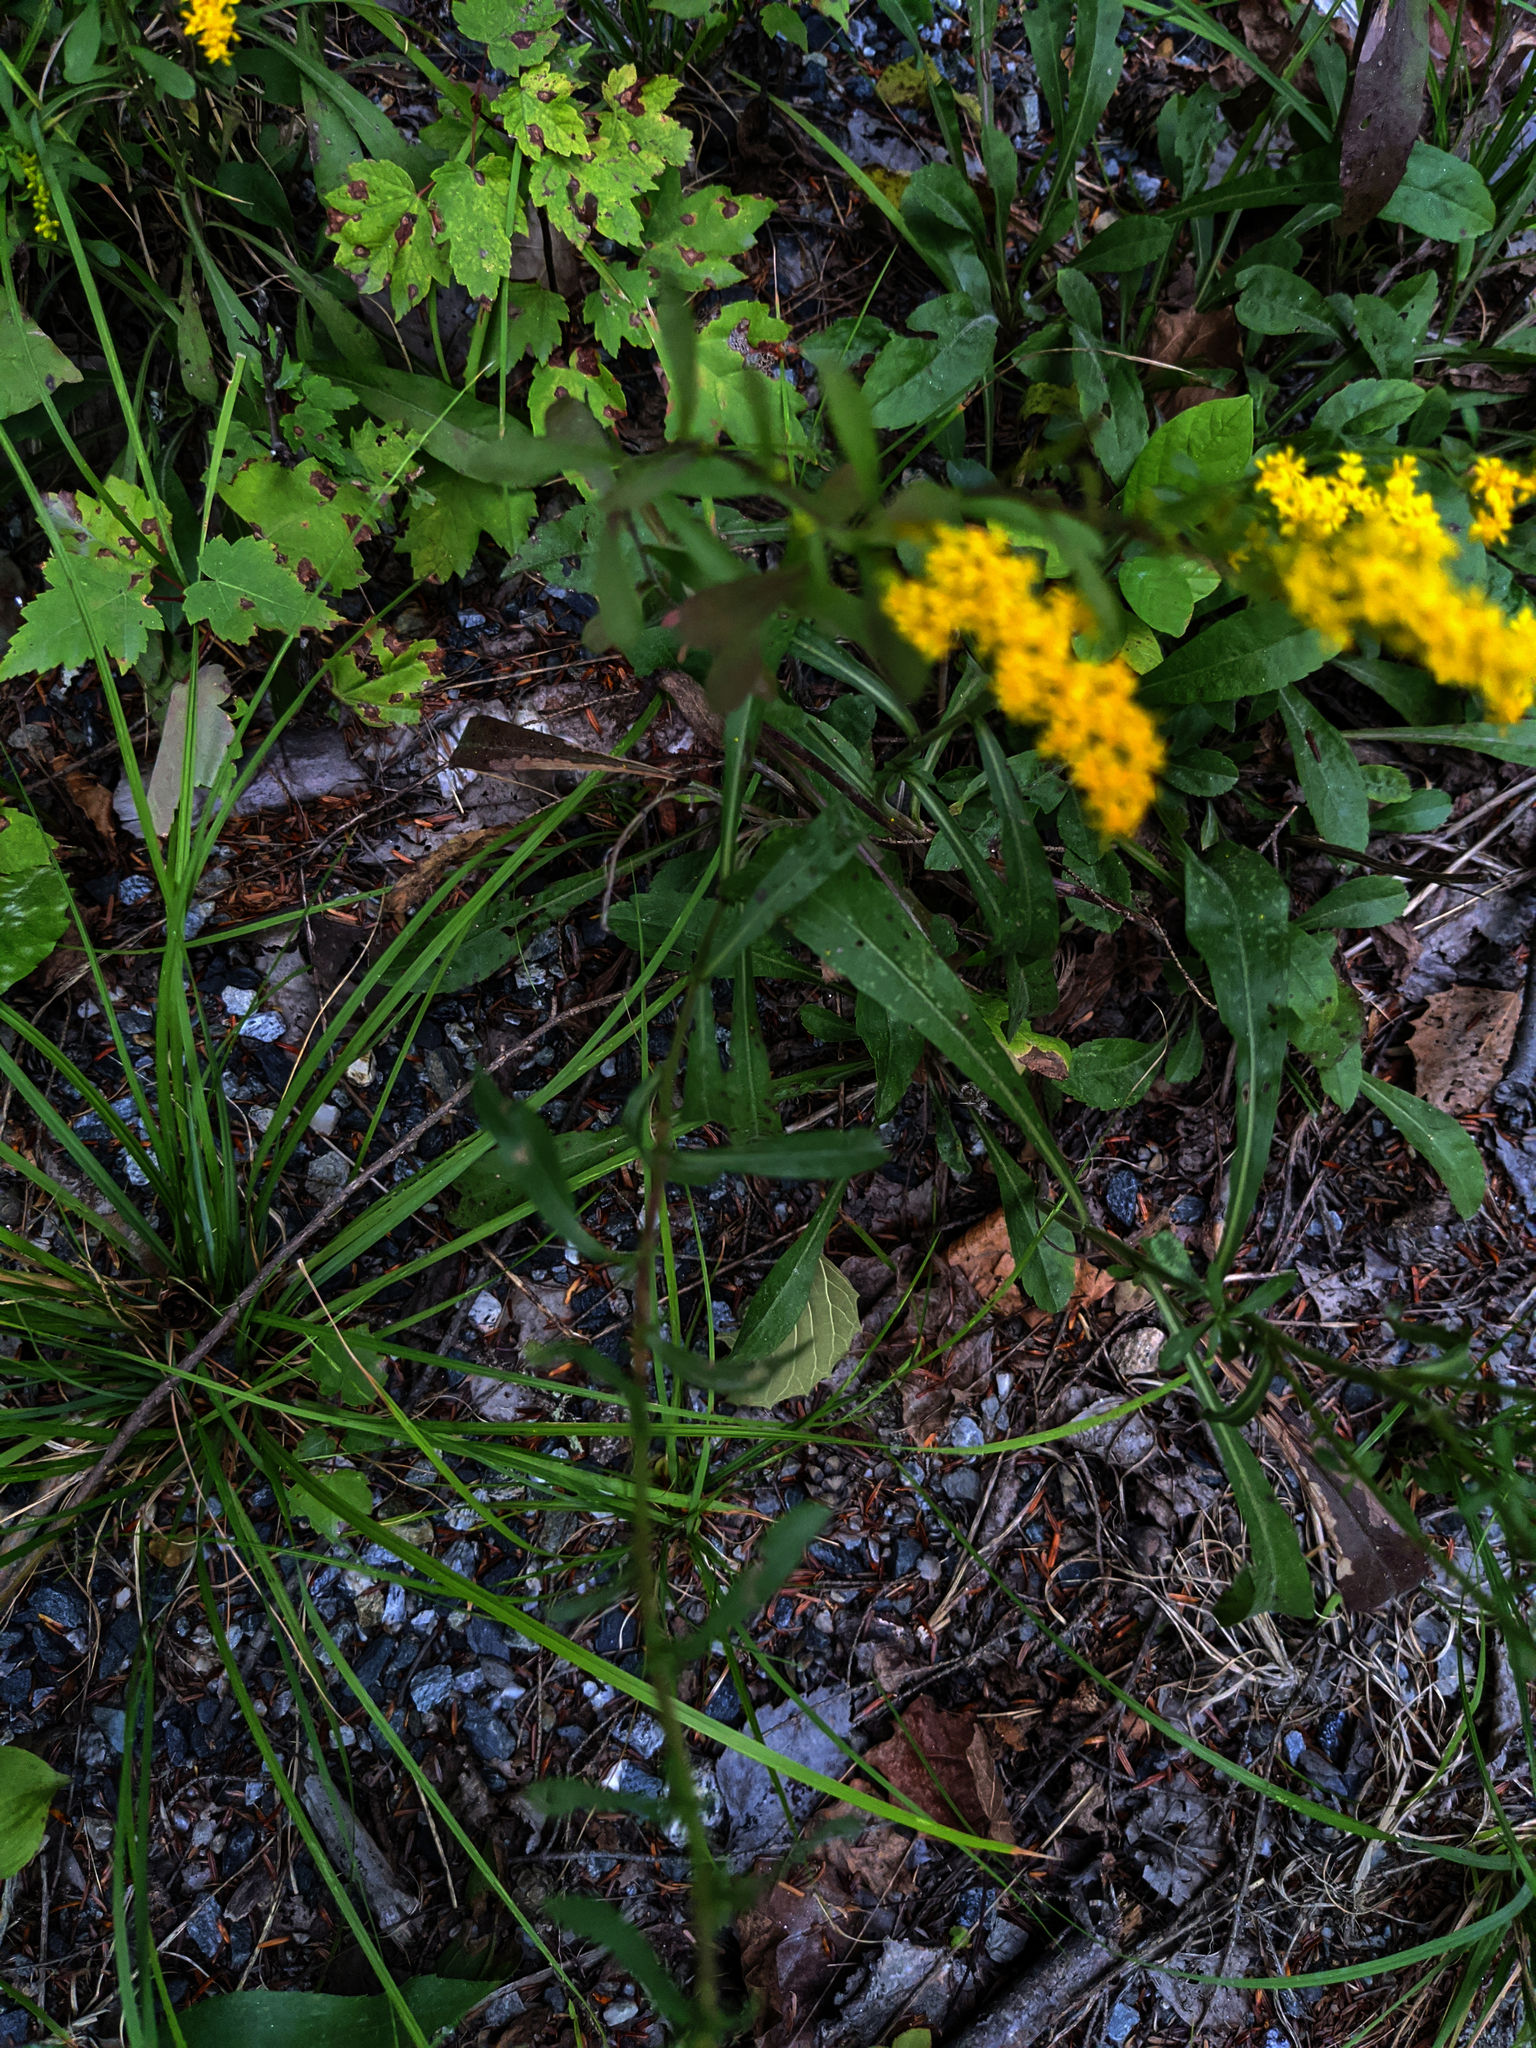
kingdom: Plantae
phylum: Tracheophyta
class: Magnoliopsida
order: Asterales
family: Asteraceae
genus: Solidago
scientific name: Solidago nemoralis
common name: Grey goldenrod
